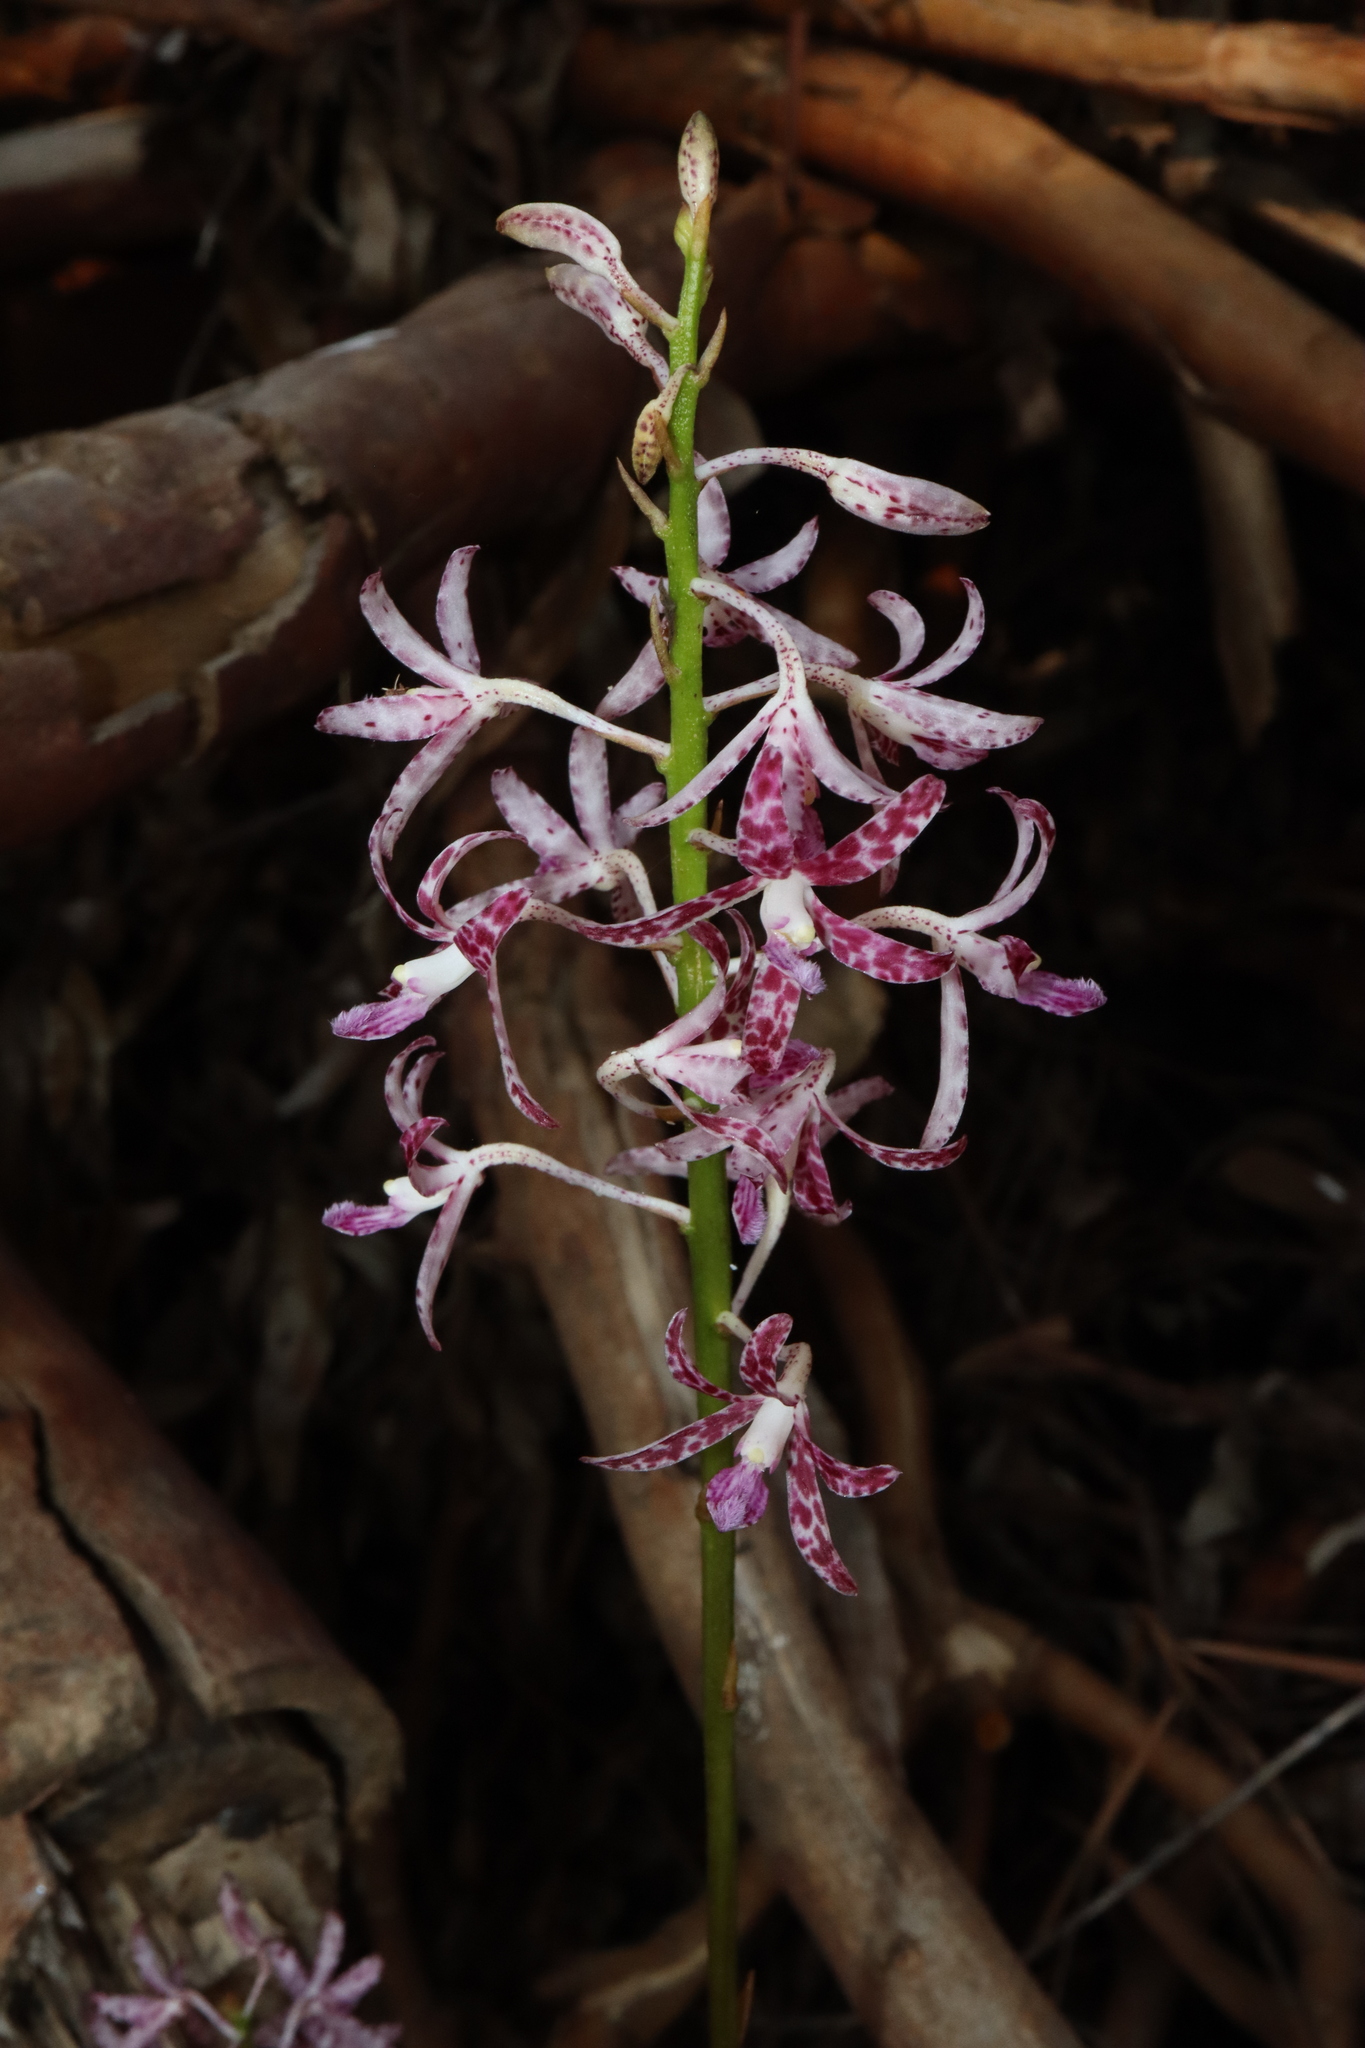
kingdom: Plantae
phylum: Tracheophyta
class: Liliopsida
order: Asparagales
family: Orchidaceae
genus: Dipodium
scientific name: Dipodium variegatum
